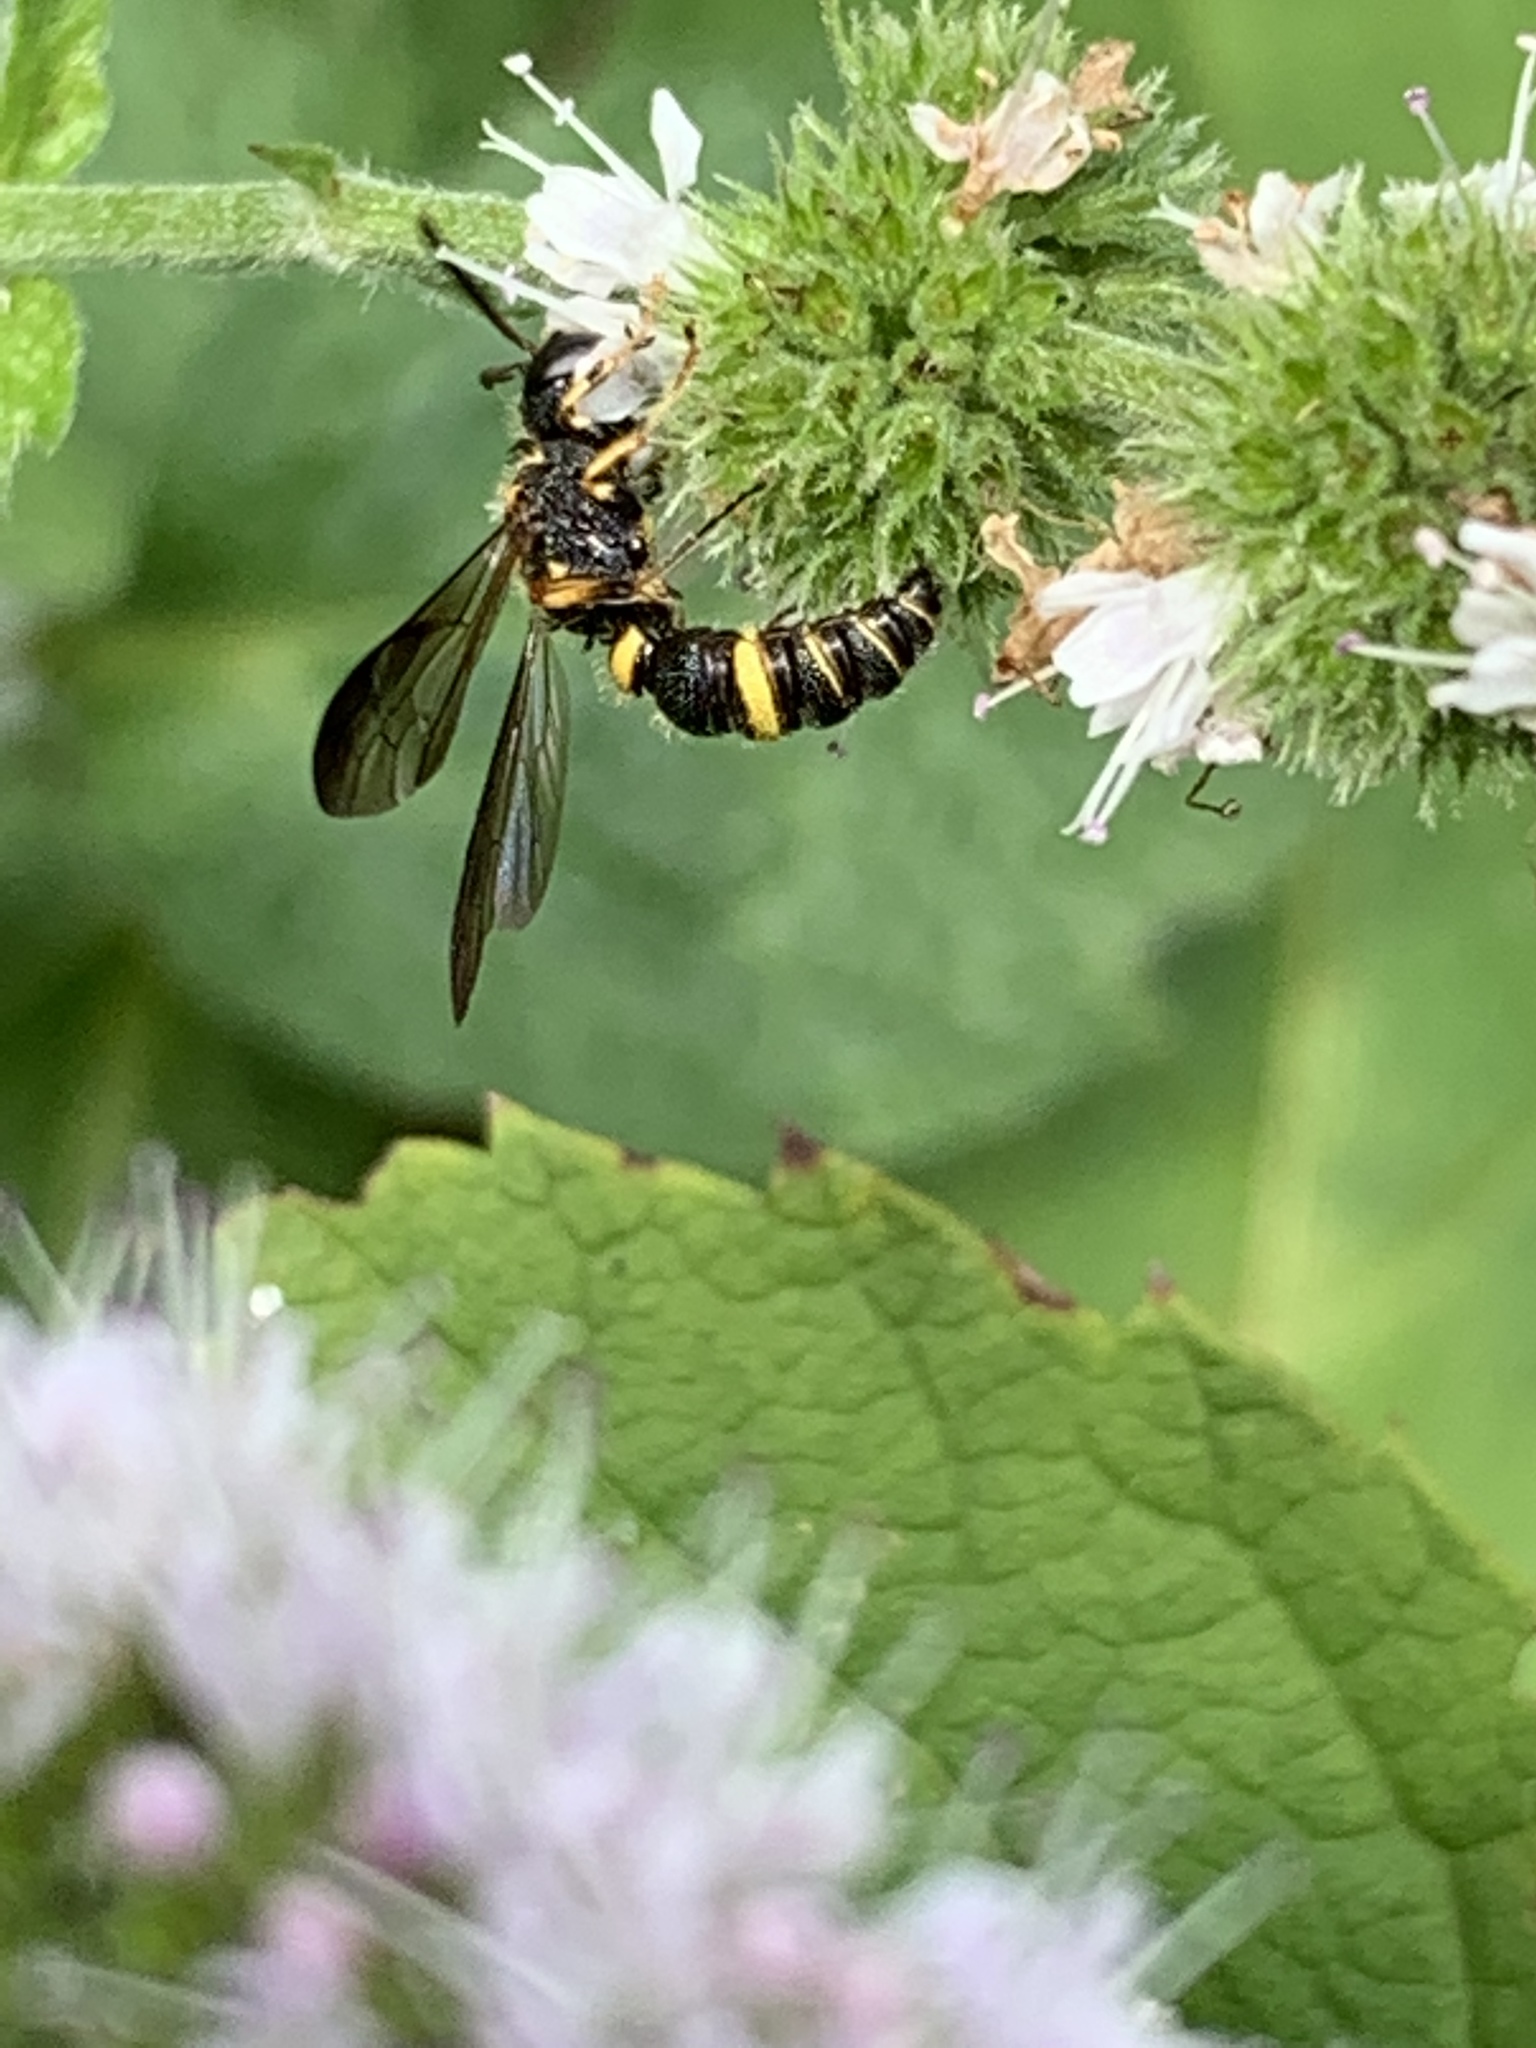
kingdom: Animalia
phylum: Arthropoda
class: Insecta
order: Hymenoptera
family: Crabronidae
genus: Cerceris
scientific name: Cerceris insolita
